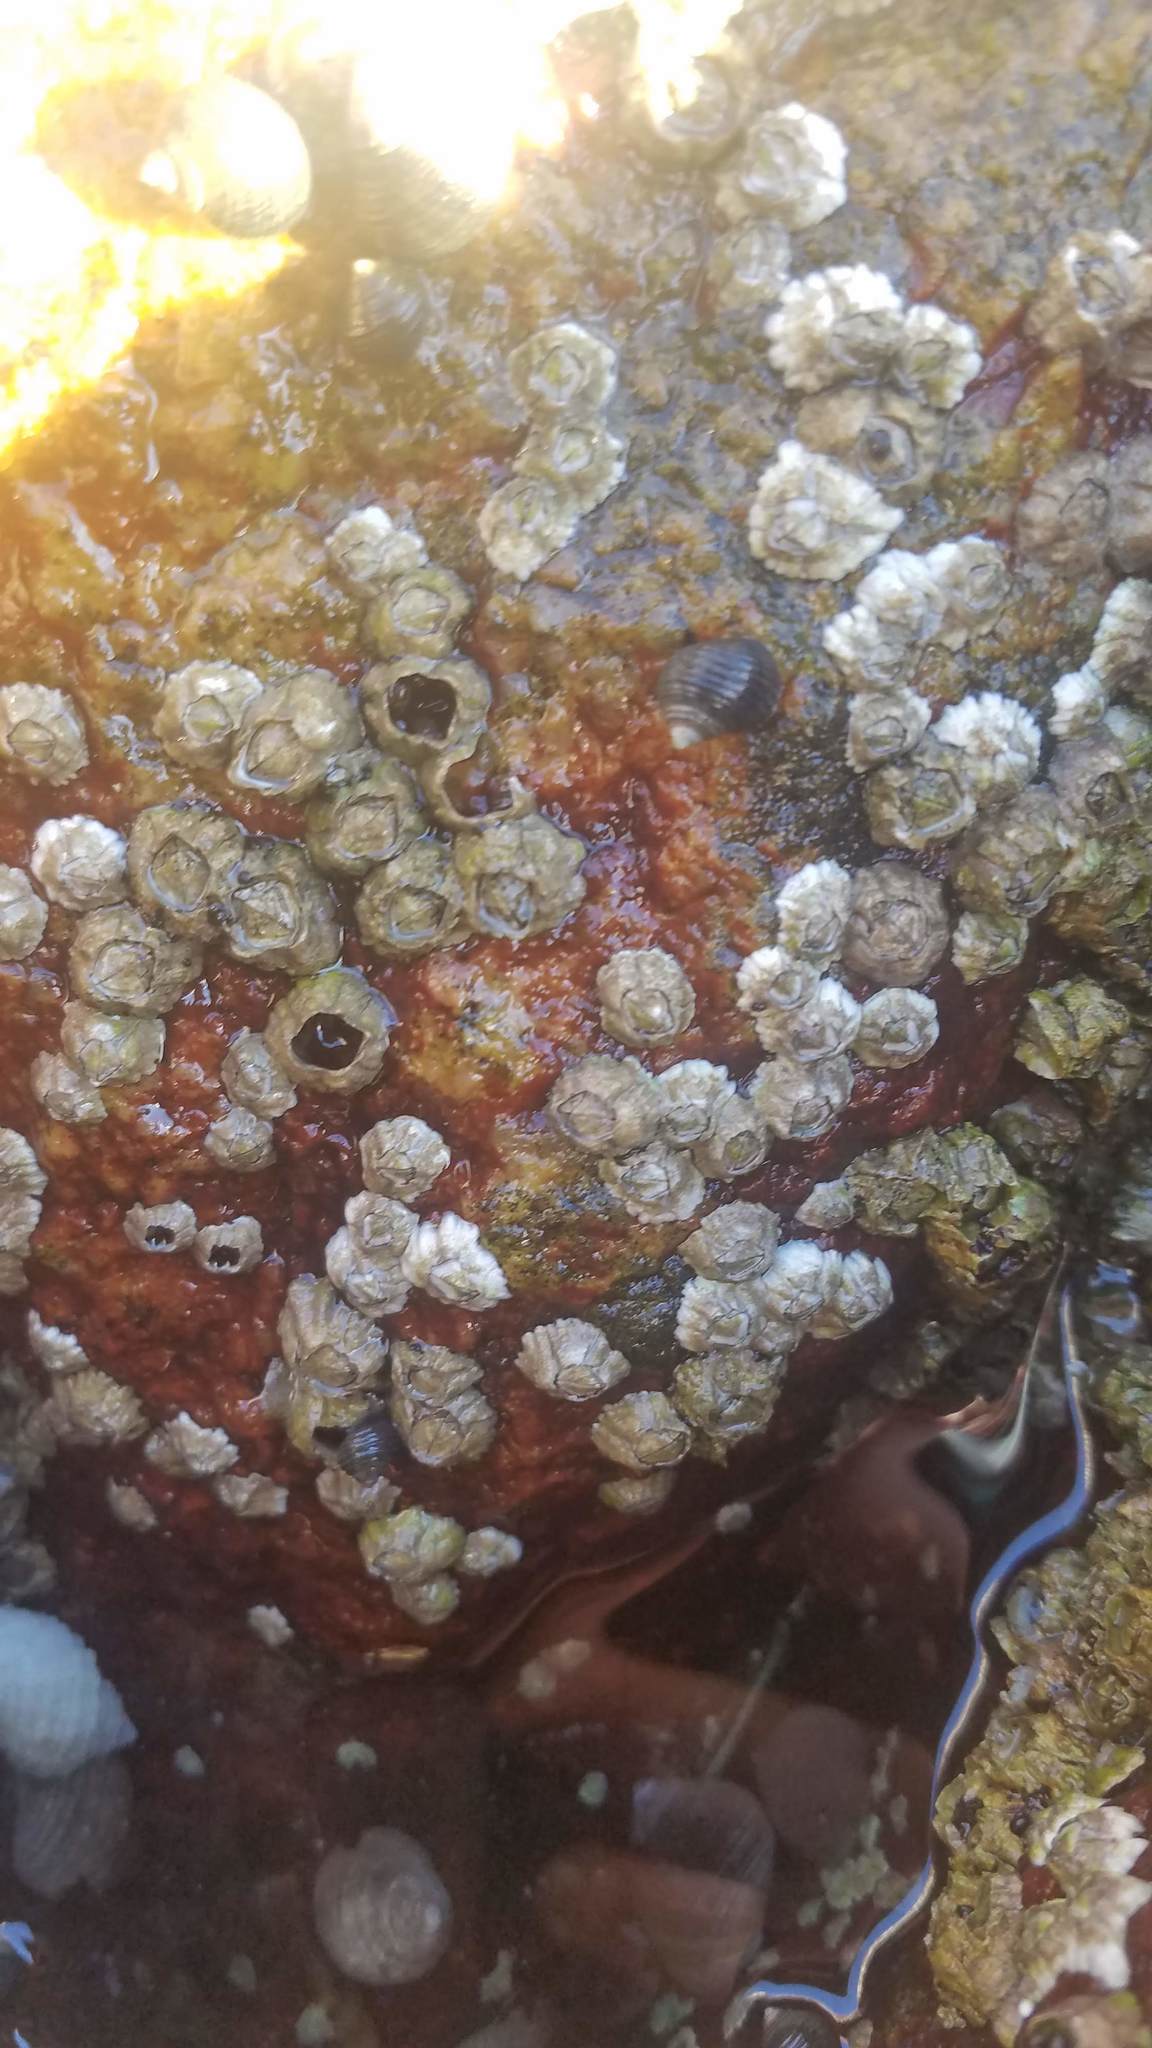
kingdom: Animalia
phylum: Arthropoda
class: Maxillopoda
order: Sessilia
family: Archaeobalanidae
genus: Semibalanus
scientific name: Semibalanus balanoides
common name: Acorn barnacle
